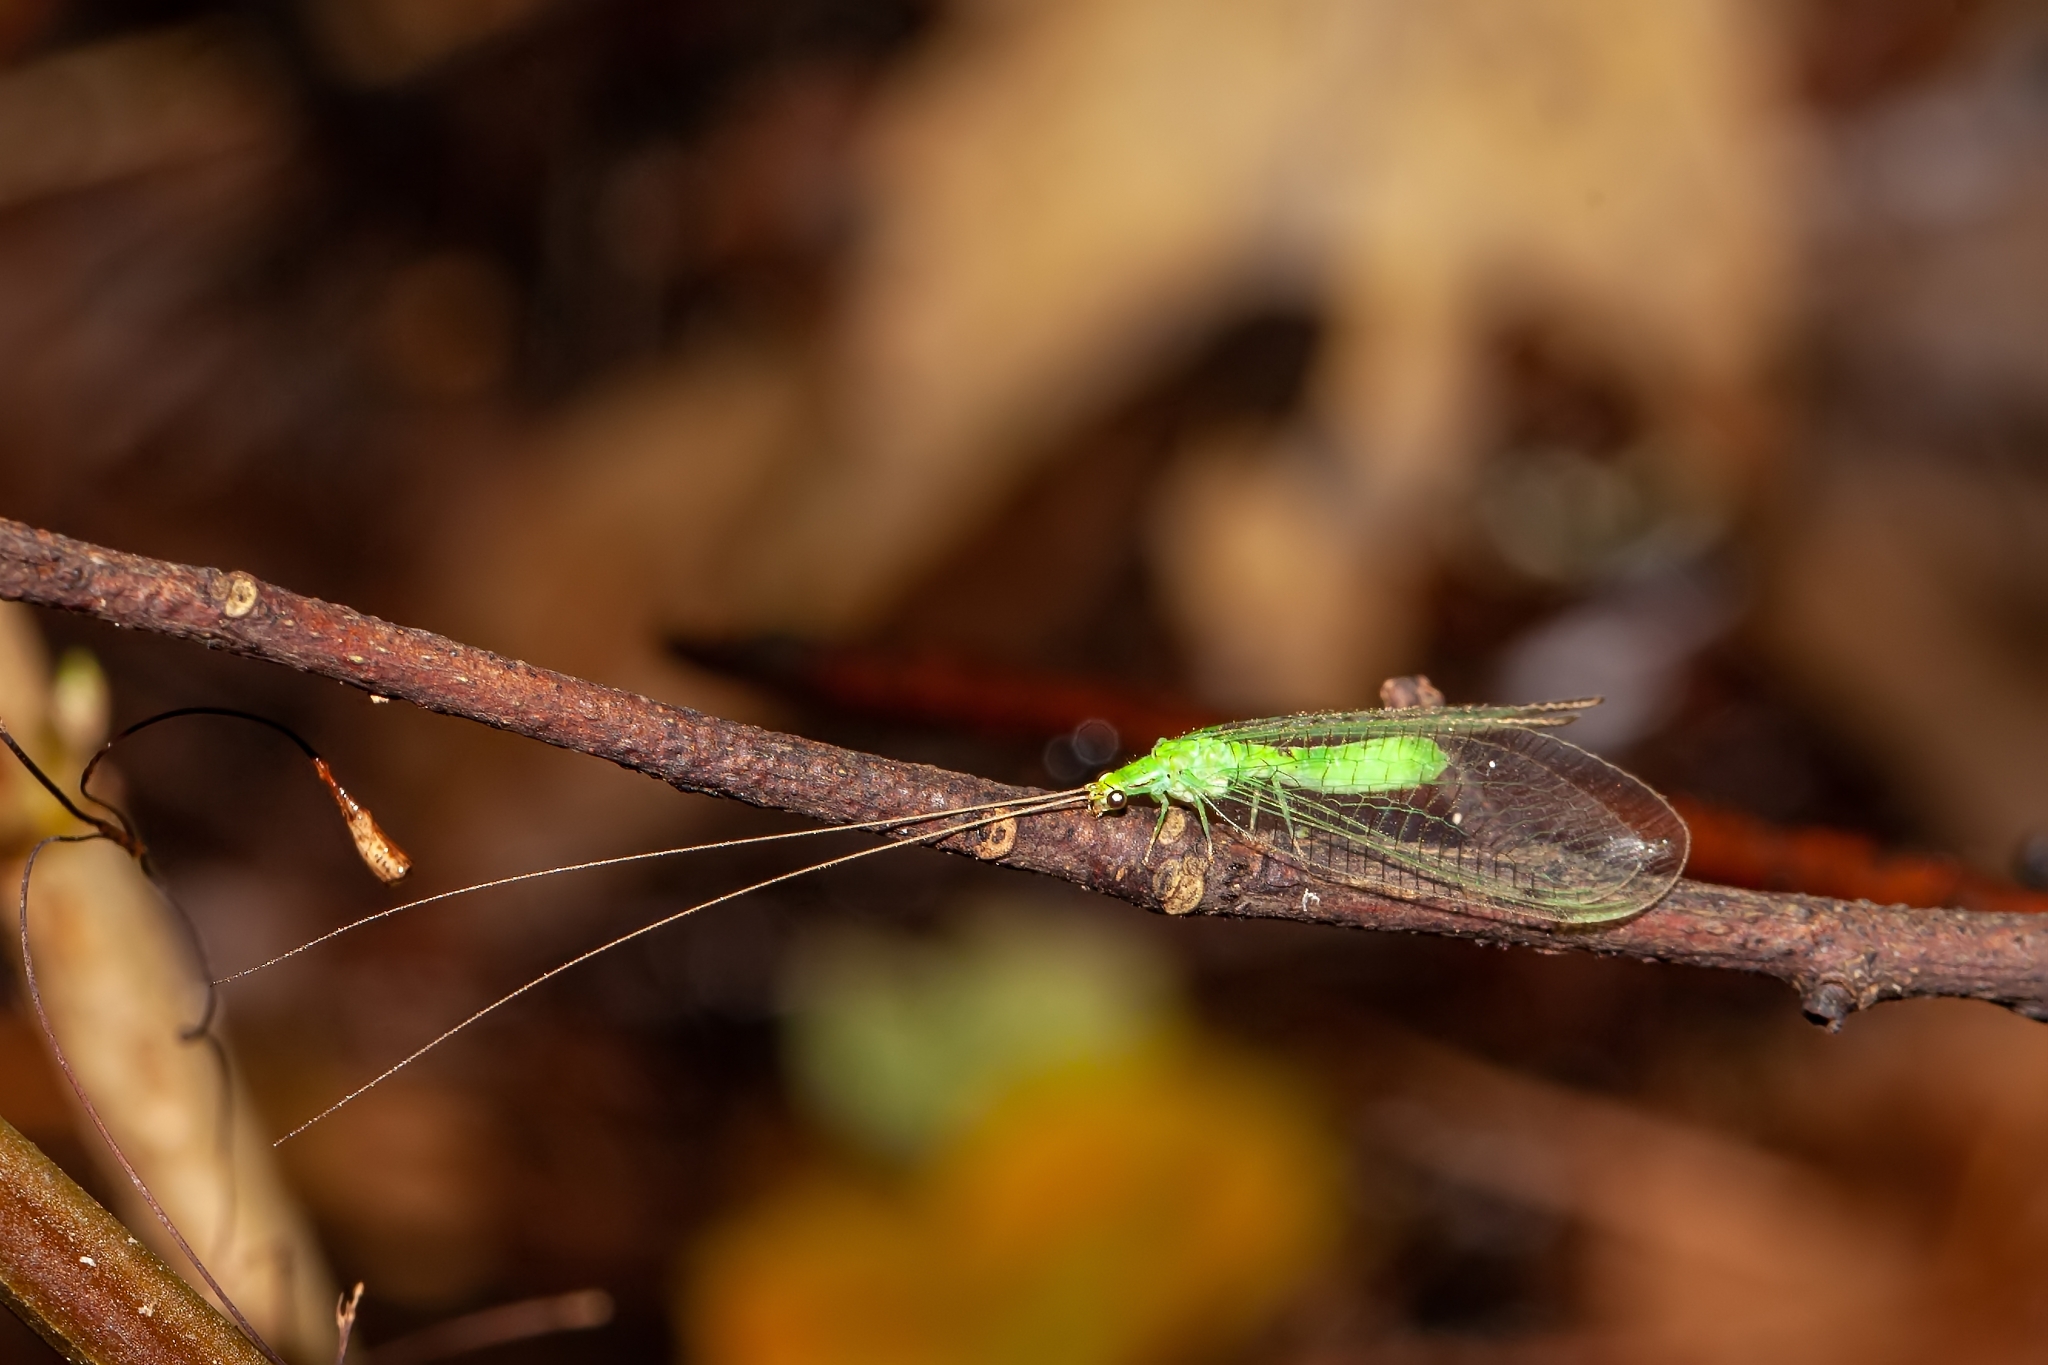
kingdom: Animalia
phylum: Arthropoda
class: Insecta
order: Neuroptera
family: Chrysopidae
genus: Leucochrysa
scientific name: Leucochrysa pavida
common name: Lichen-carrying green lacewing
